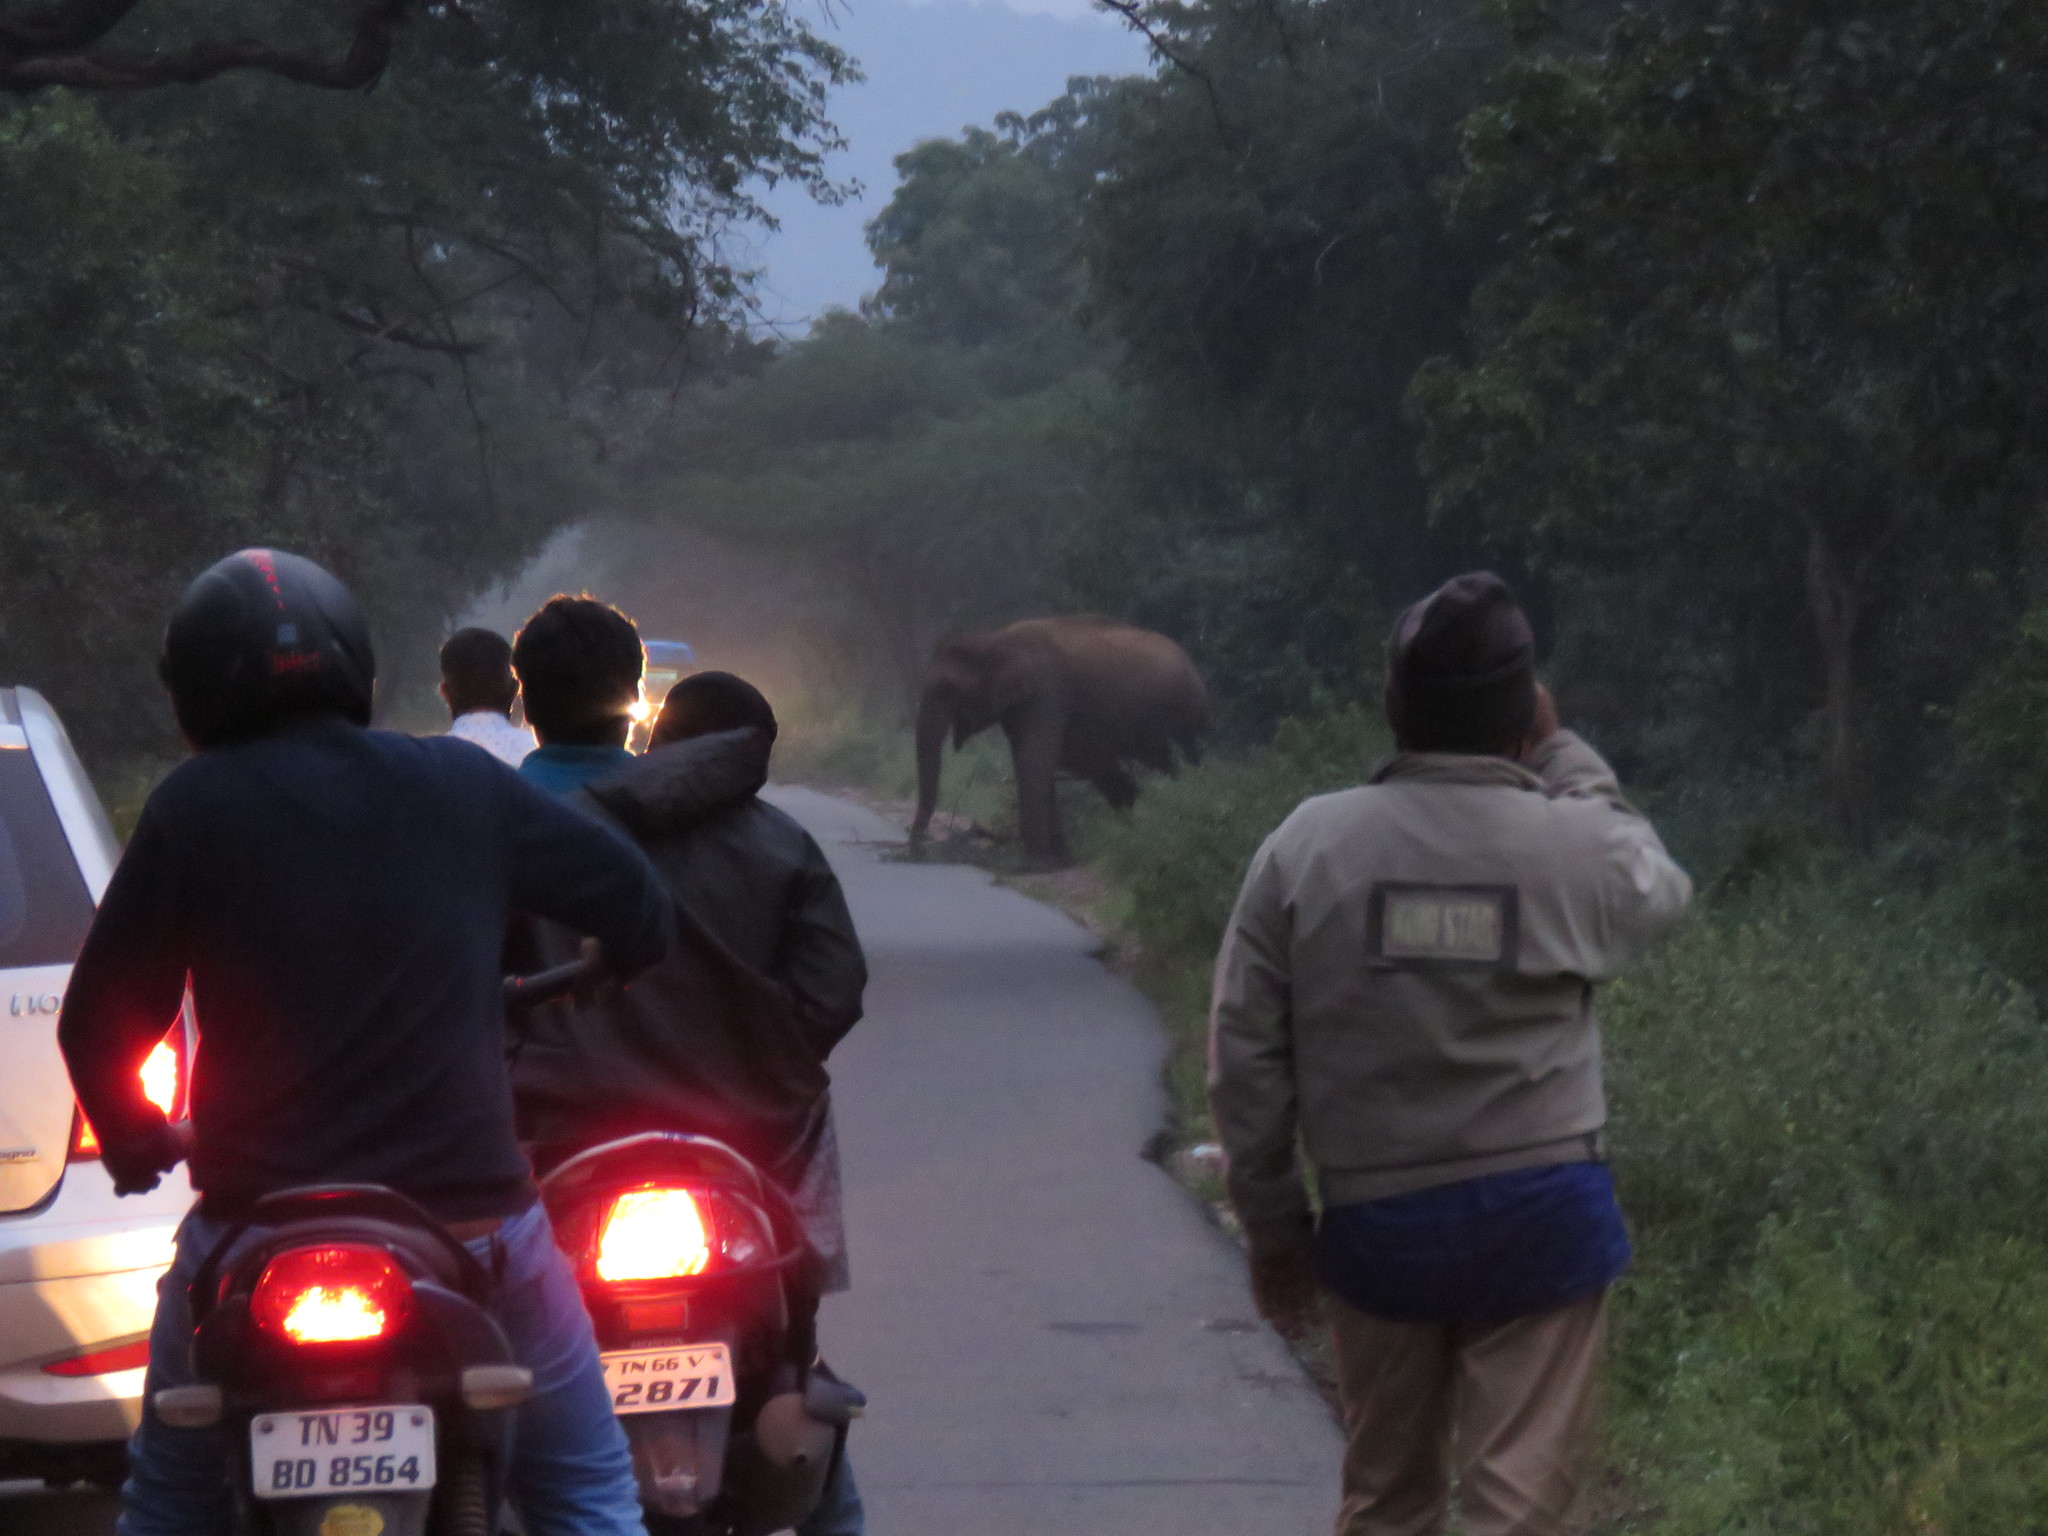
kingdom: Animalia
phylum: Chordata
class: Mammalia
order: Proboscidea
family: Elephantidae
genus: Elephas
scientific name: Elephas maximus
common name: Asian elephant
